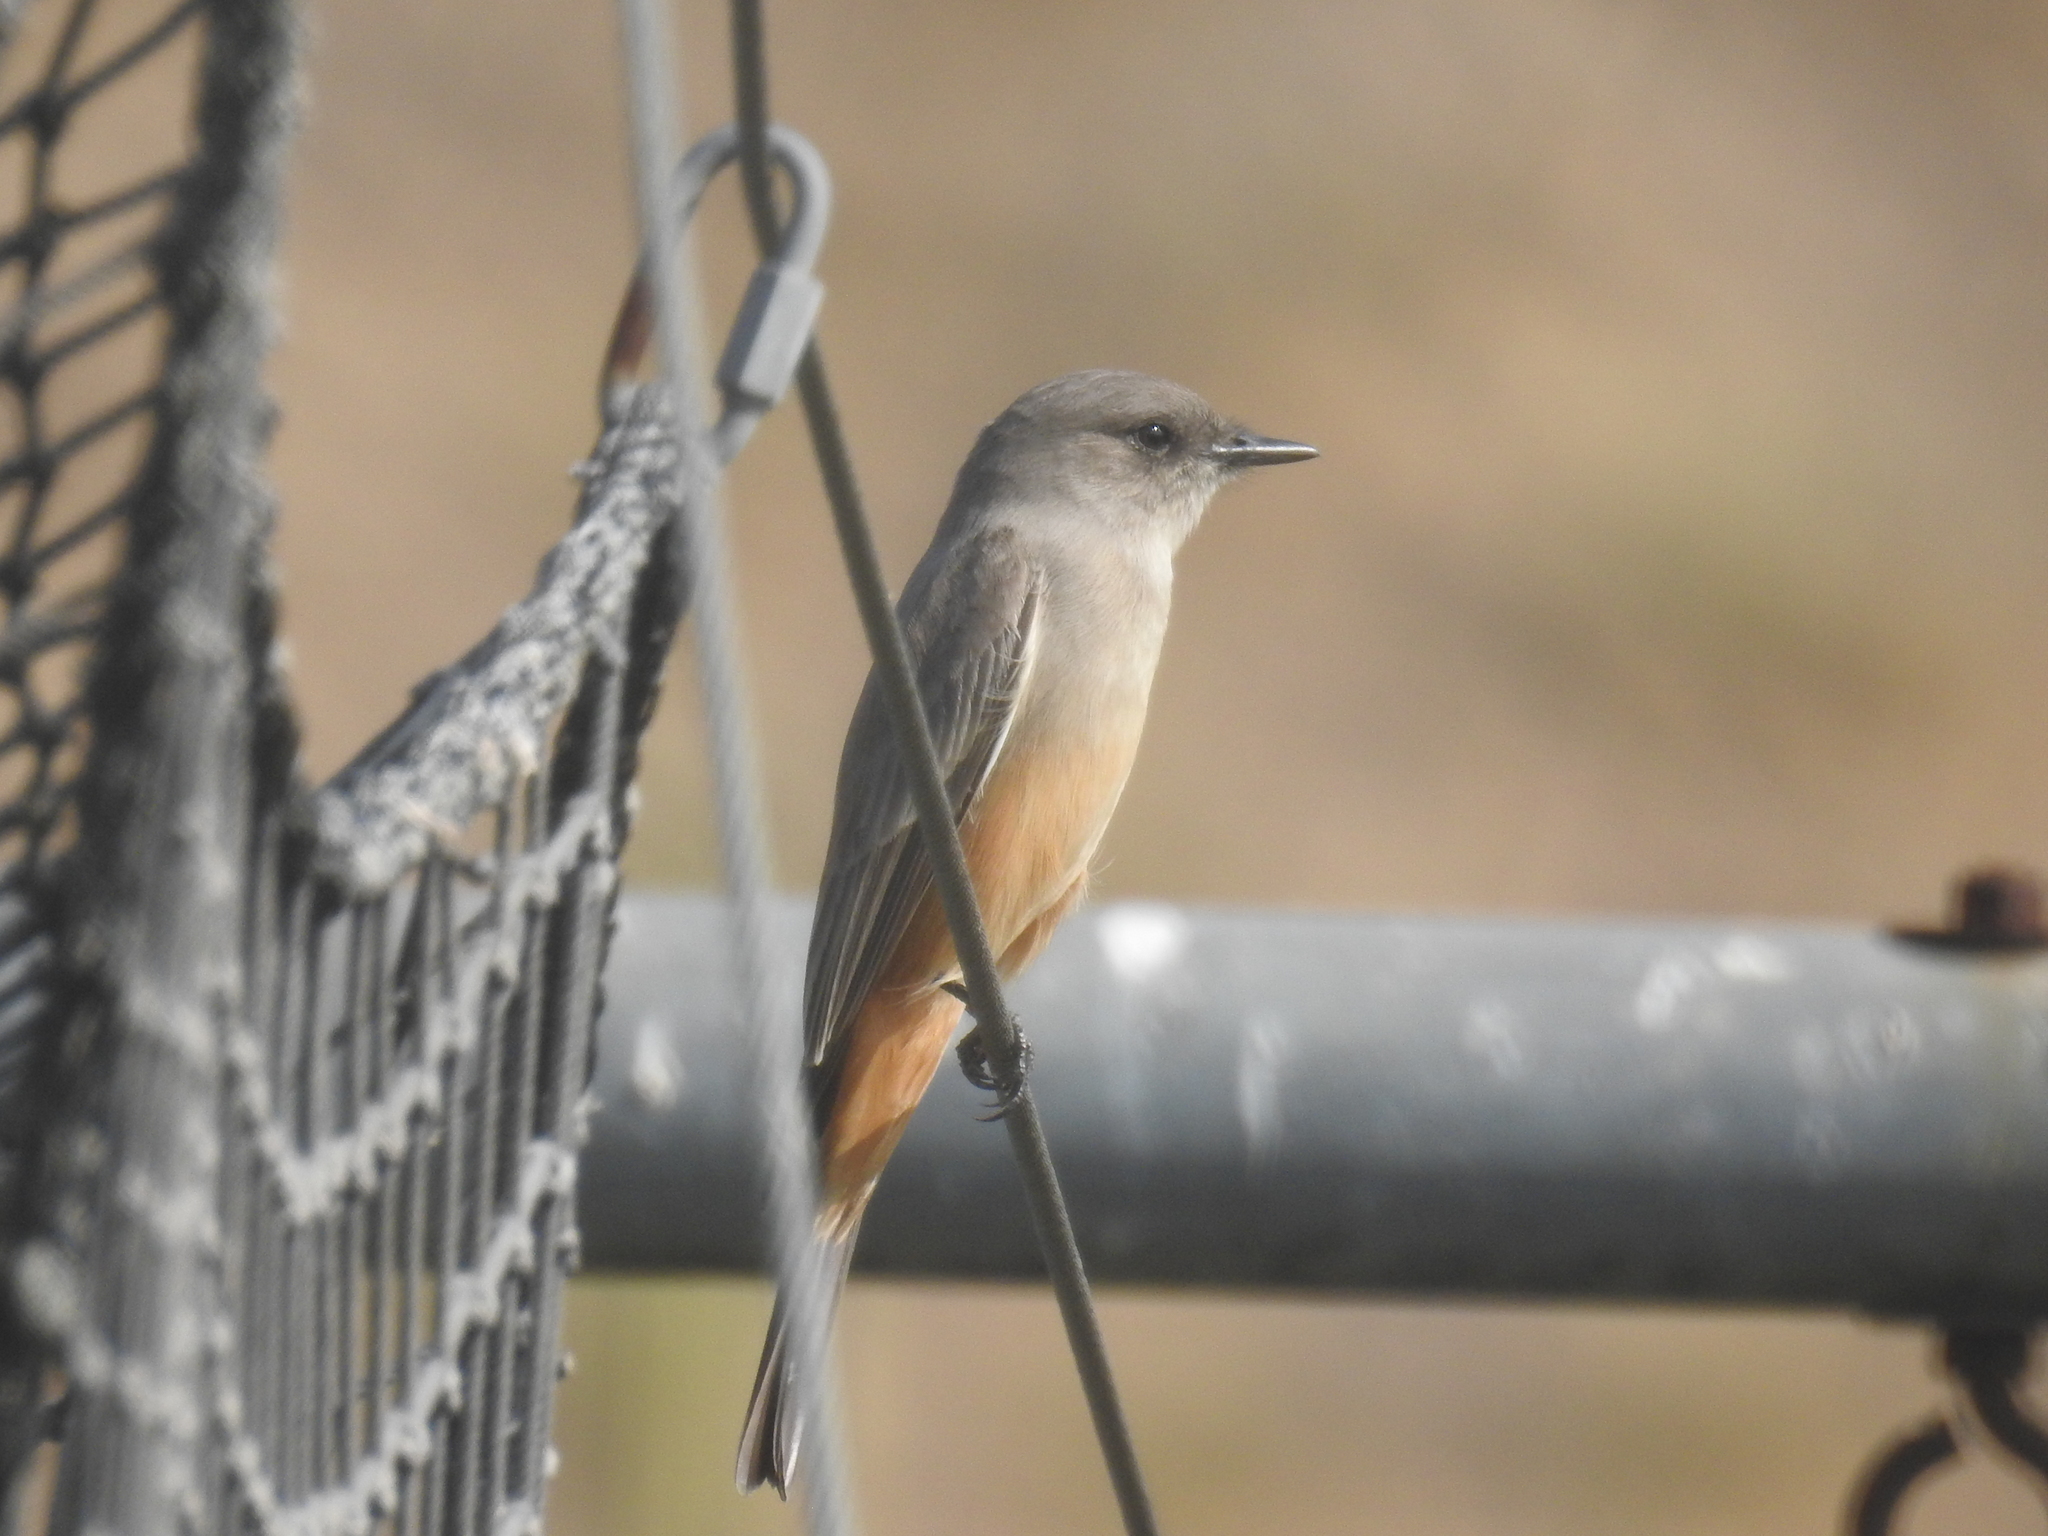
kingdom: Animalia
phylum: Chordata
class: Aves
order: Passeriformes
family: Tyrannidae
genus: Sayornis
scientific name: Sayornis saya
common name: Say's phoebe
